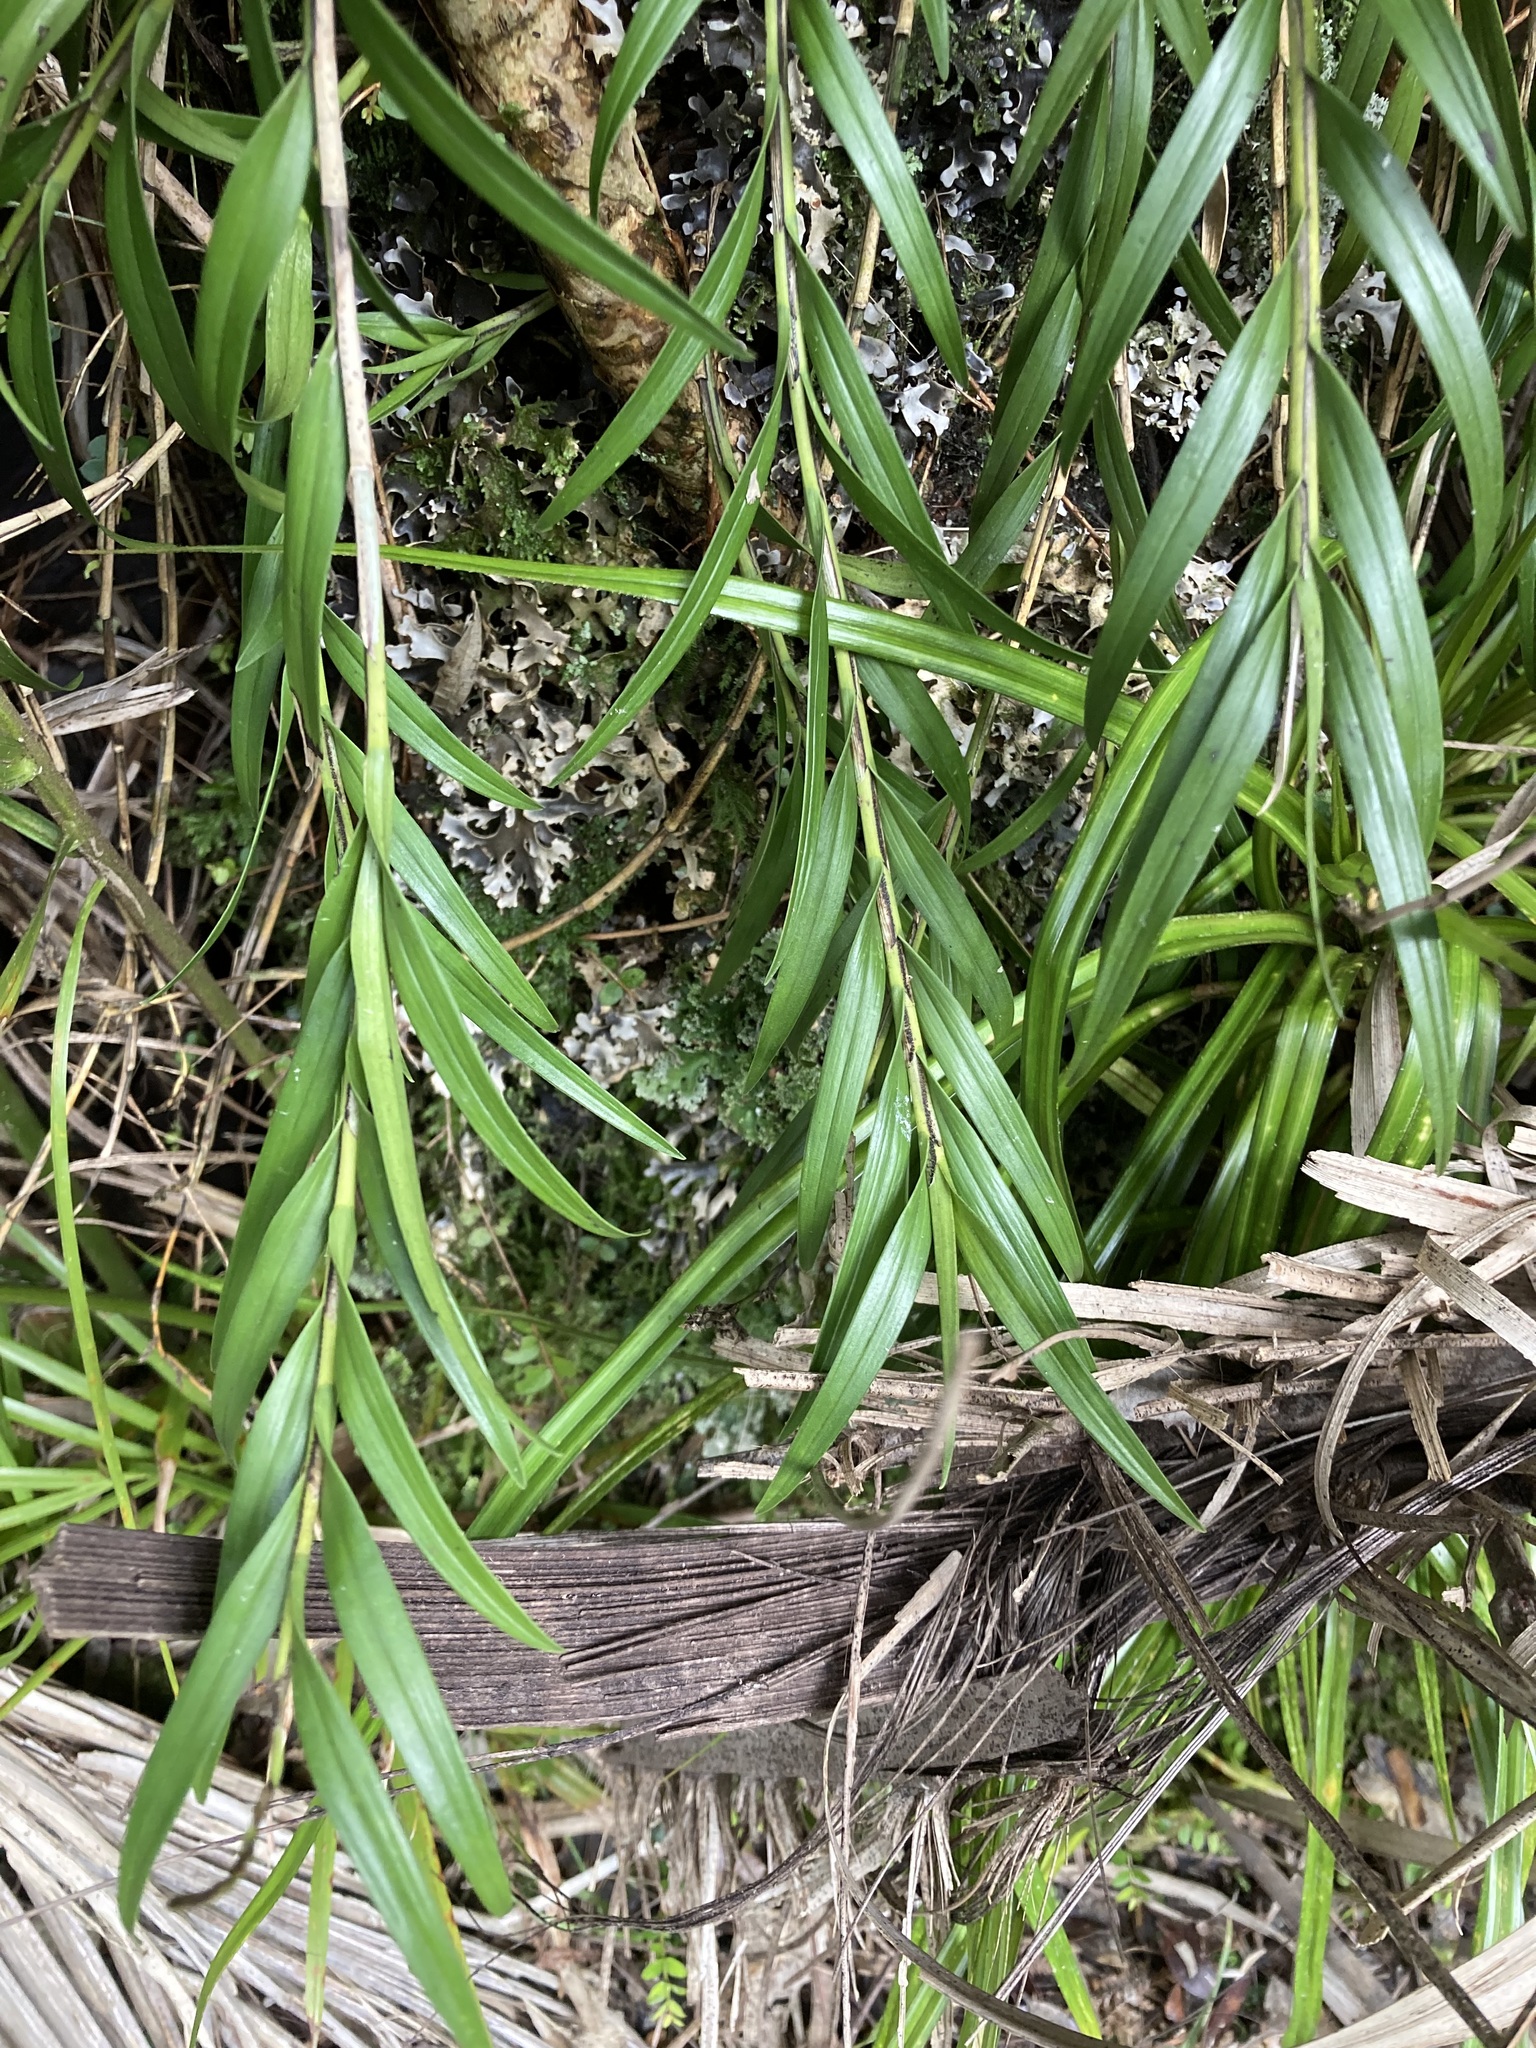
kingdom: Plantae
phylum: Tracheophyta
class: Liliopsida
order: Asparagales
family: Orchidaceae
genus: Earina
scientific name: Earina autumnalis
